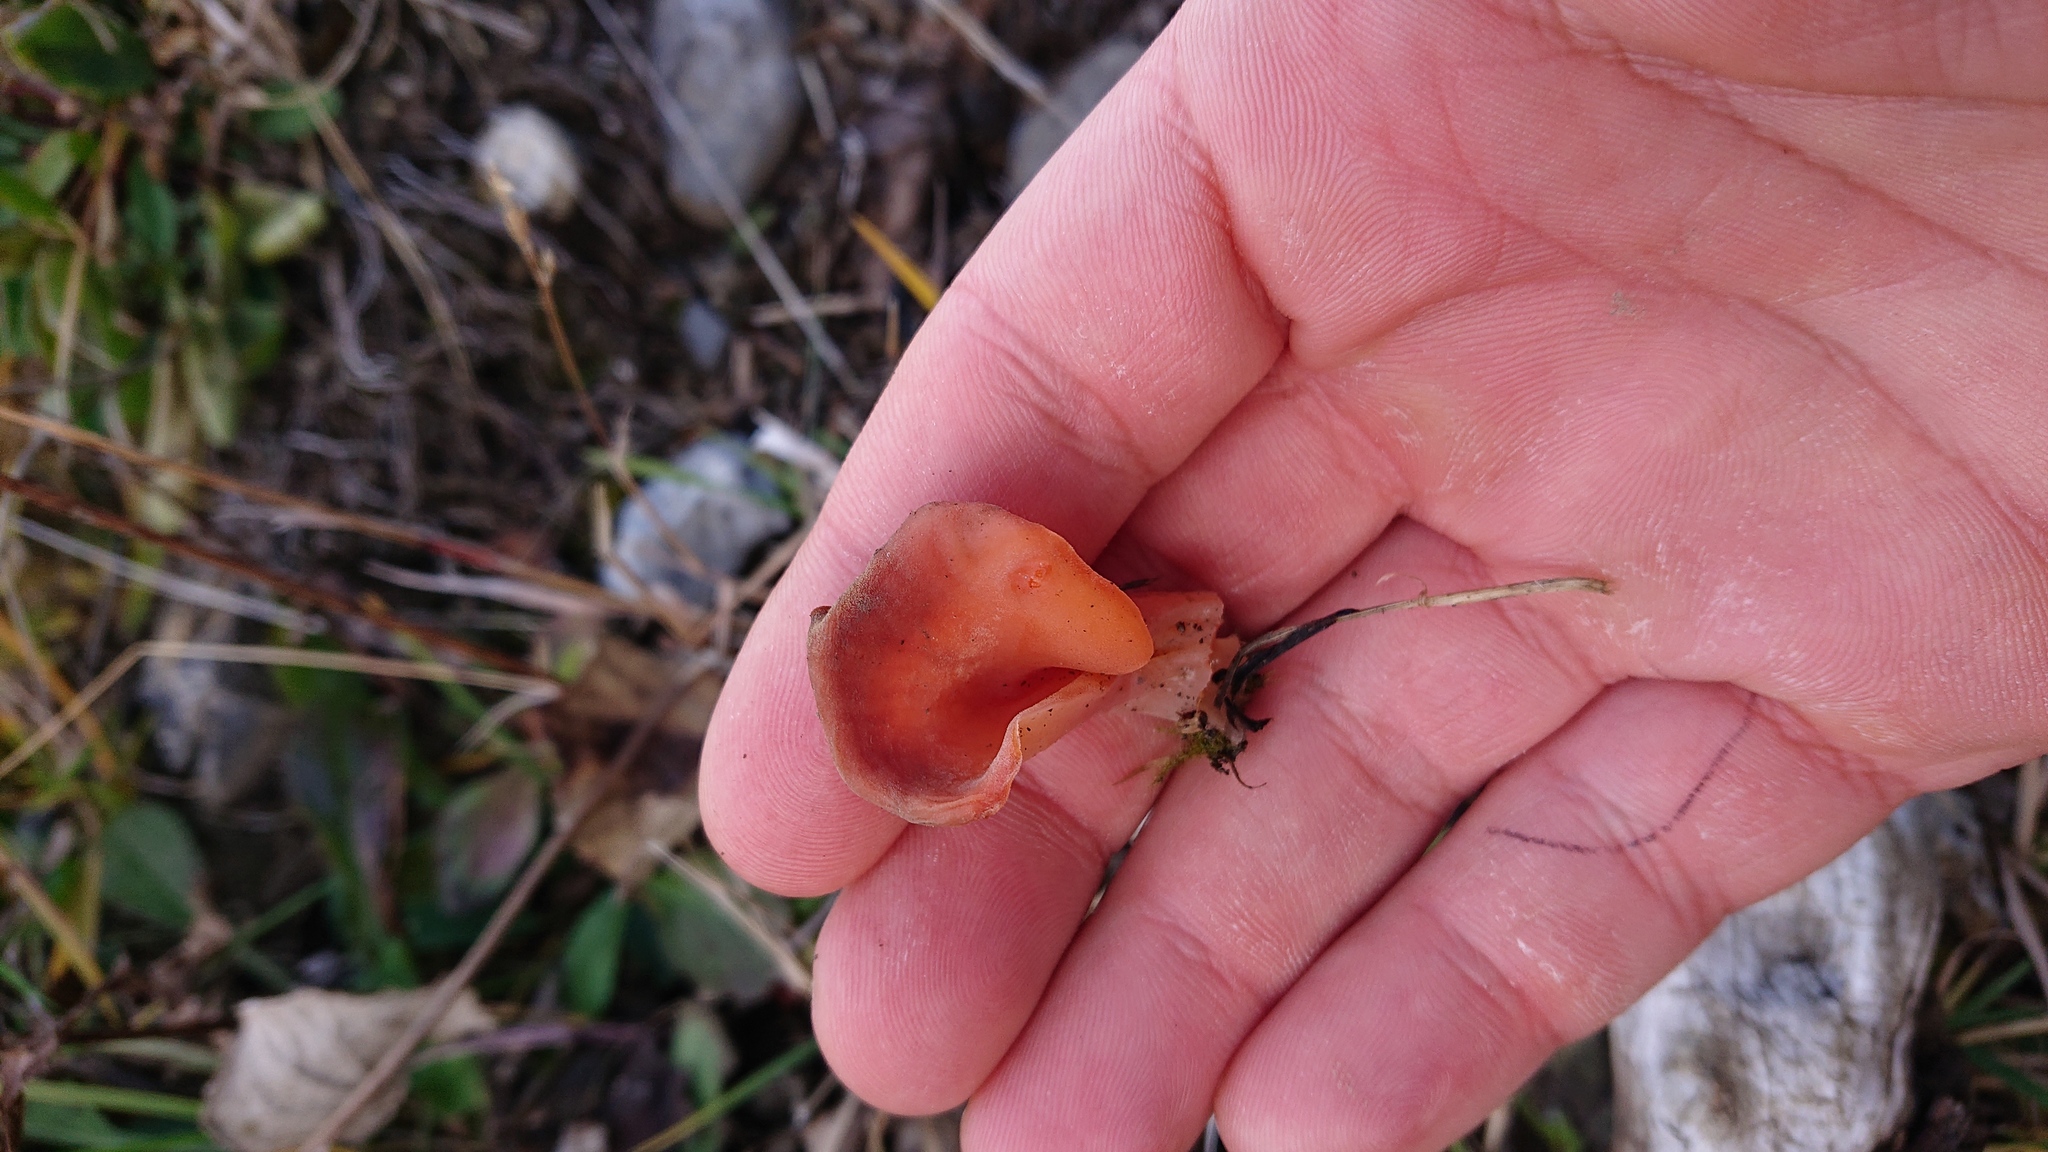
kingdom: Fungi
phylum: Basidiomycota
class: Agaricomycetes
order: Auriculariales
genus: Guepinia
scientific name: Guepinia helvelloides
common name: Salmon salad
